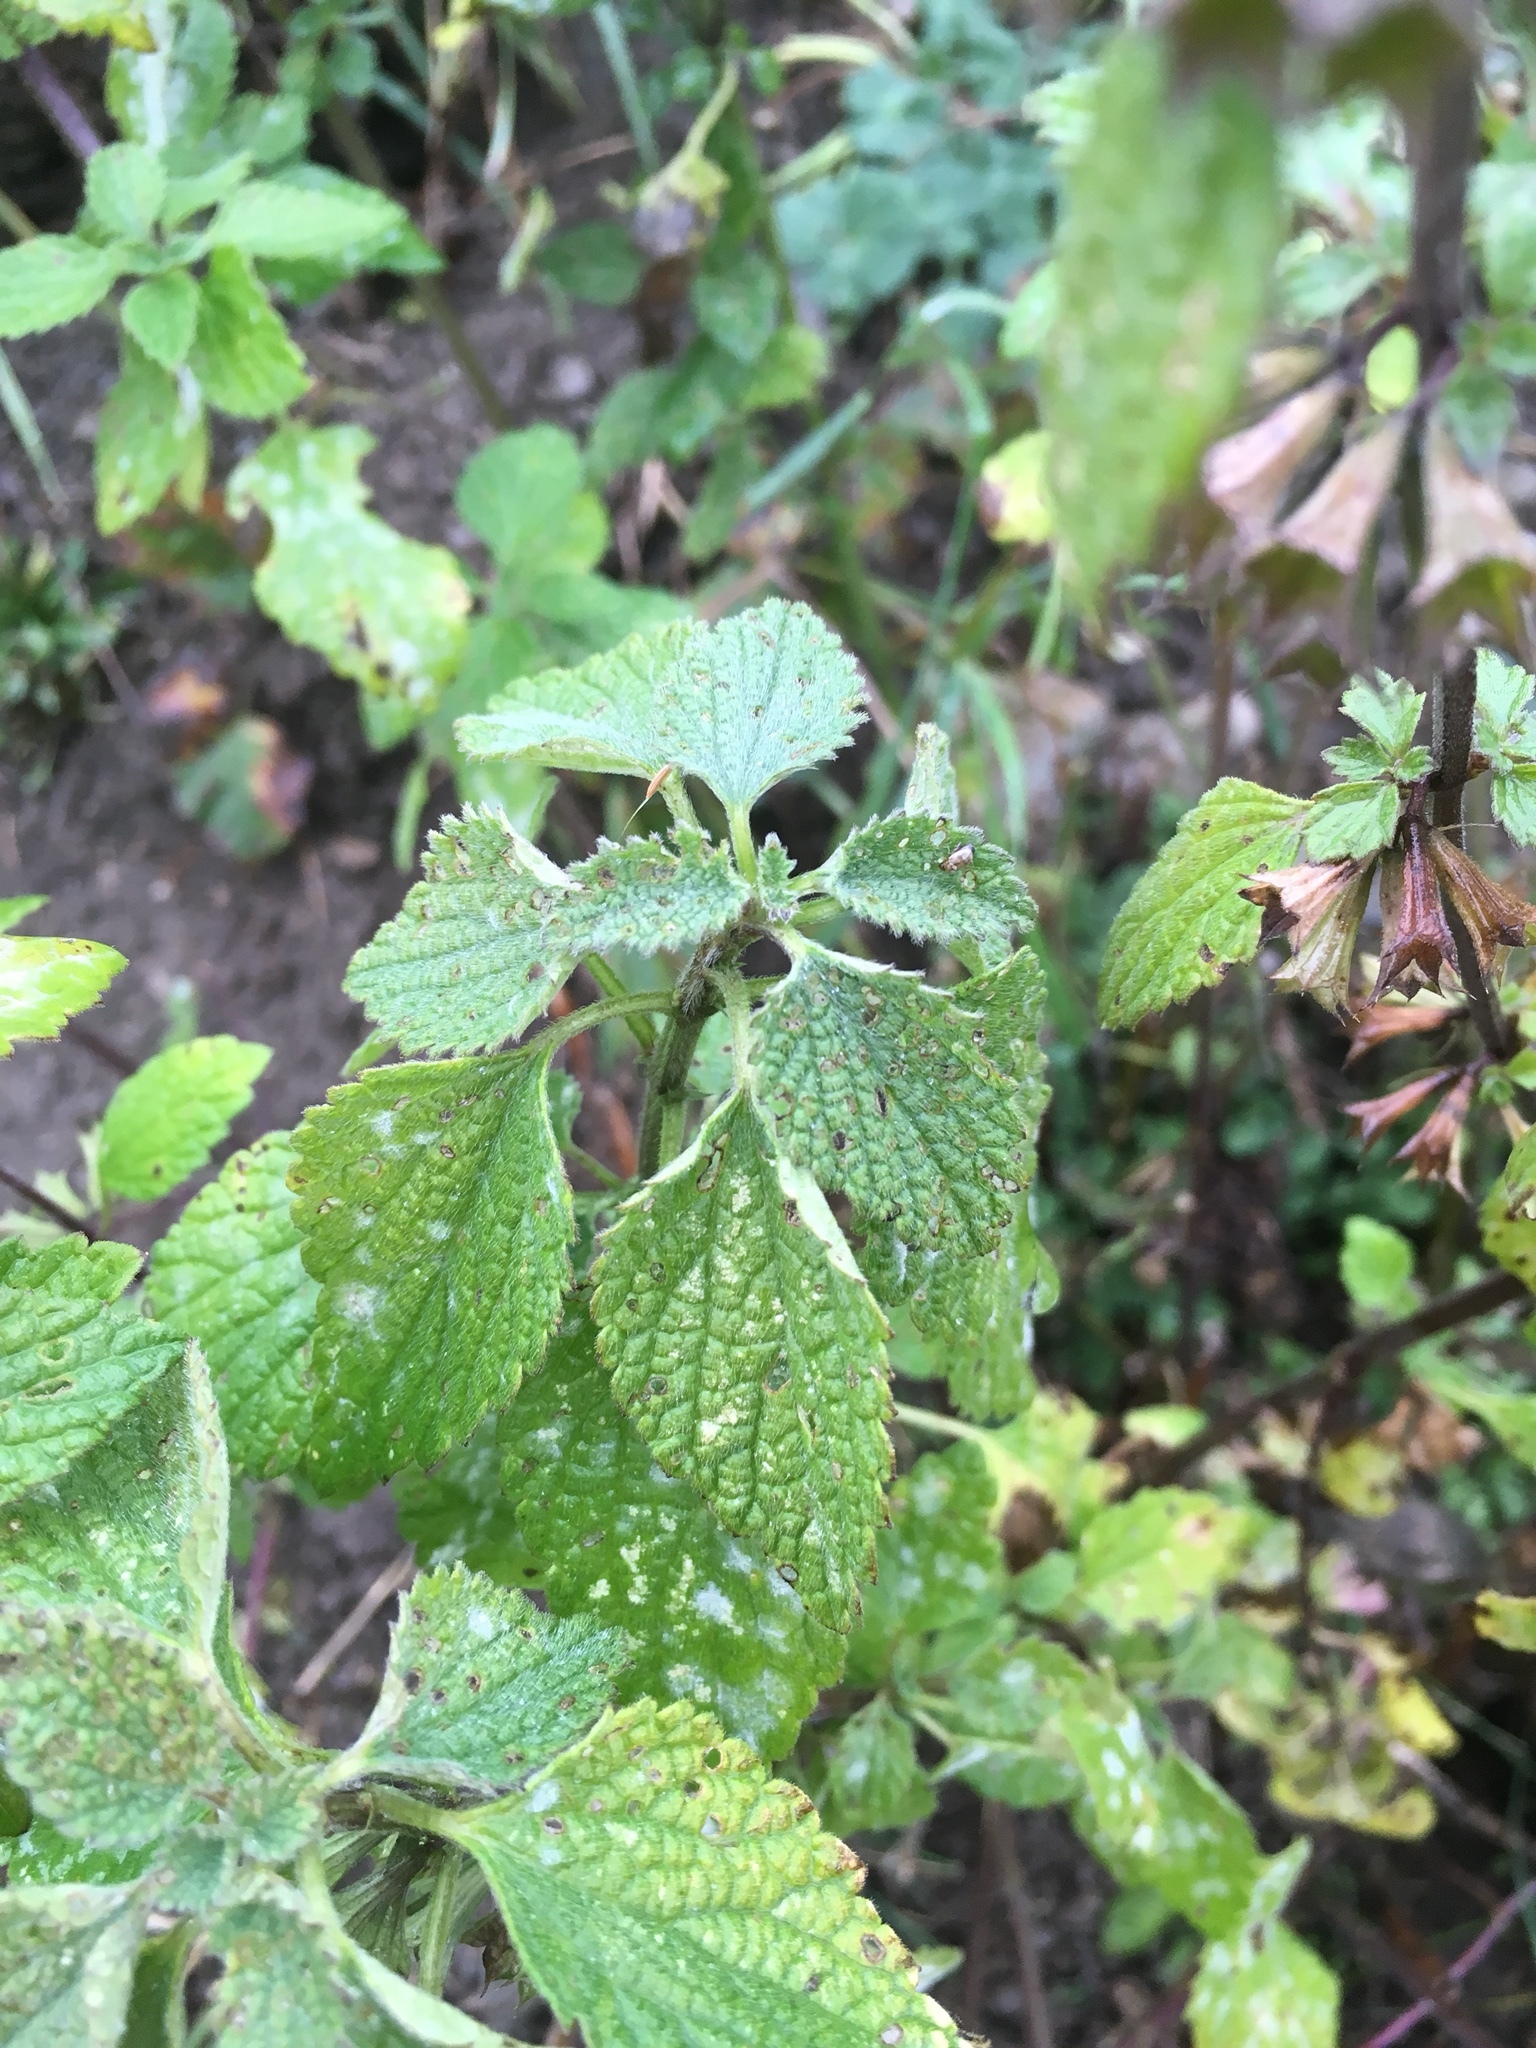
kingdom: Plantae
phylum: Tracheophyta
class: Magnoliopsida
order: Lamiales
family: Lamiaceae
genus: Ballota
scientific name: Ballota nigra
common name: Black horehound
